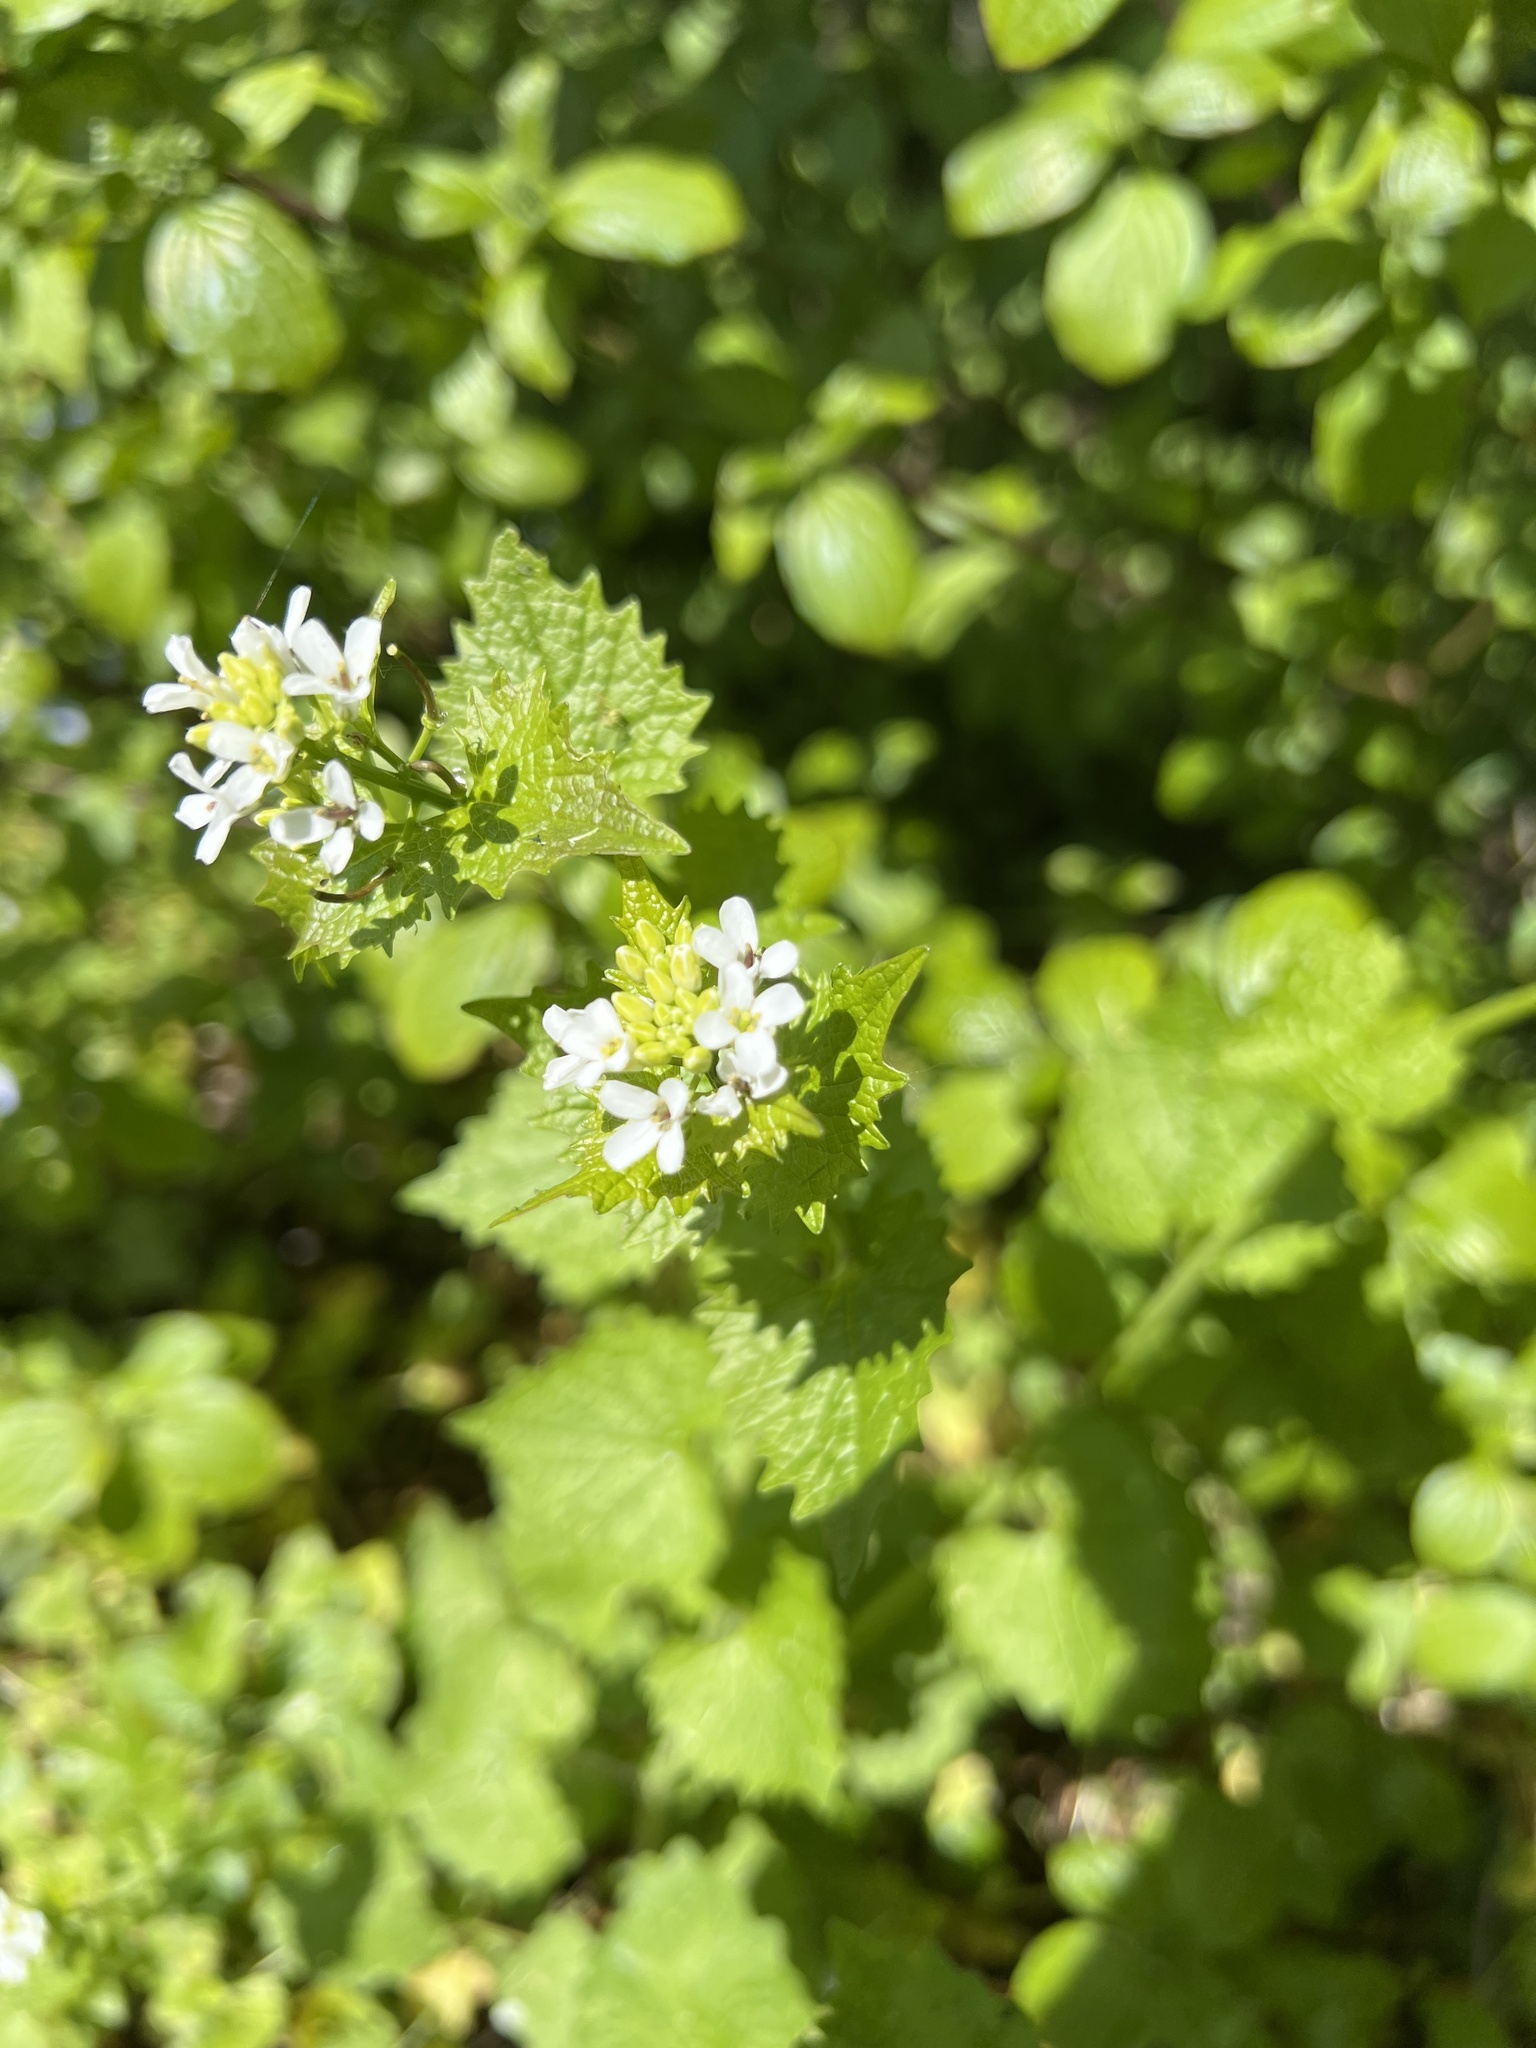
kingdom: Plantae
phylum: Tracheophyta
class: Magnoliopsida
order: Brassicales
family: Brassicaceae
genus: Alliaria
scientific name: Alliaria petiolata
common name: Garlic mustard
